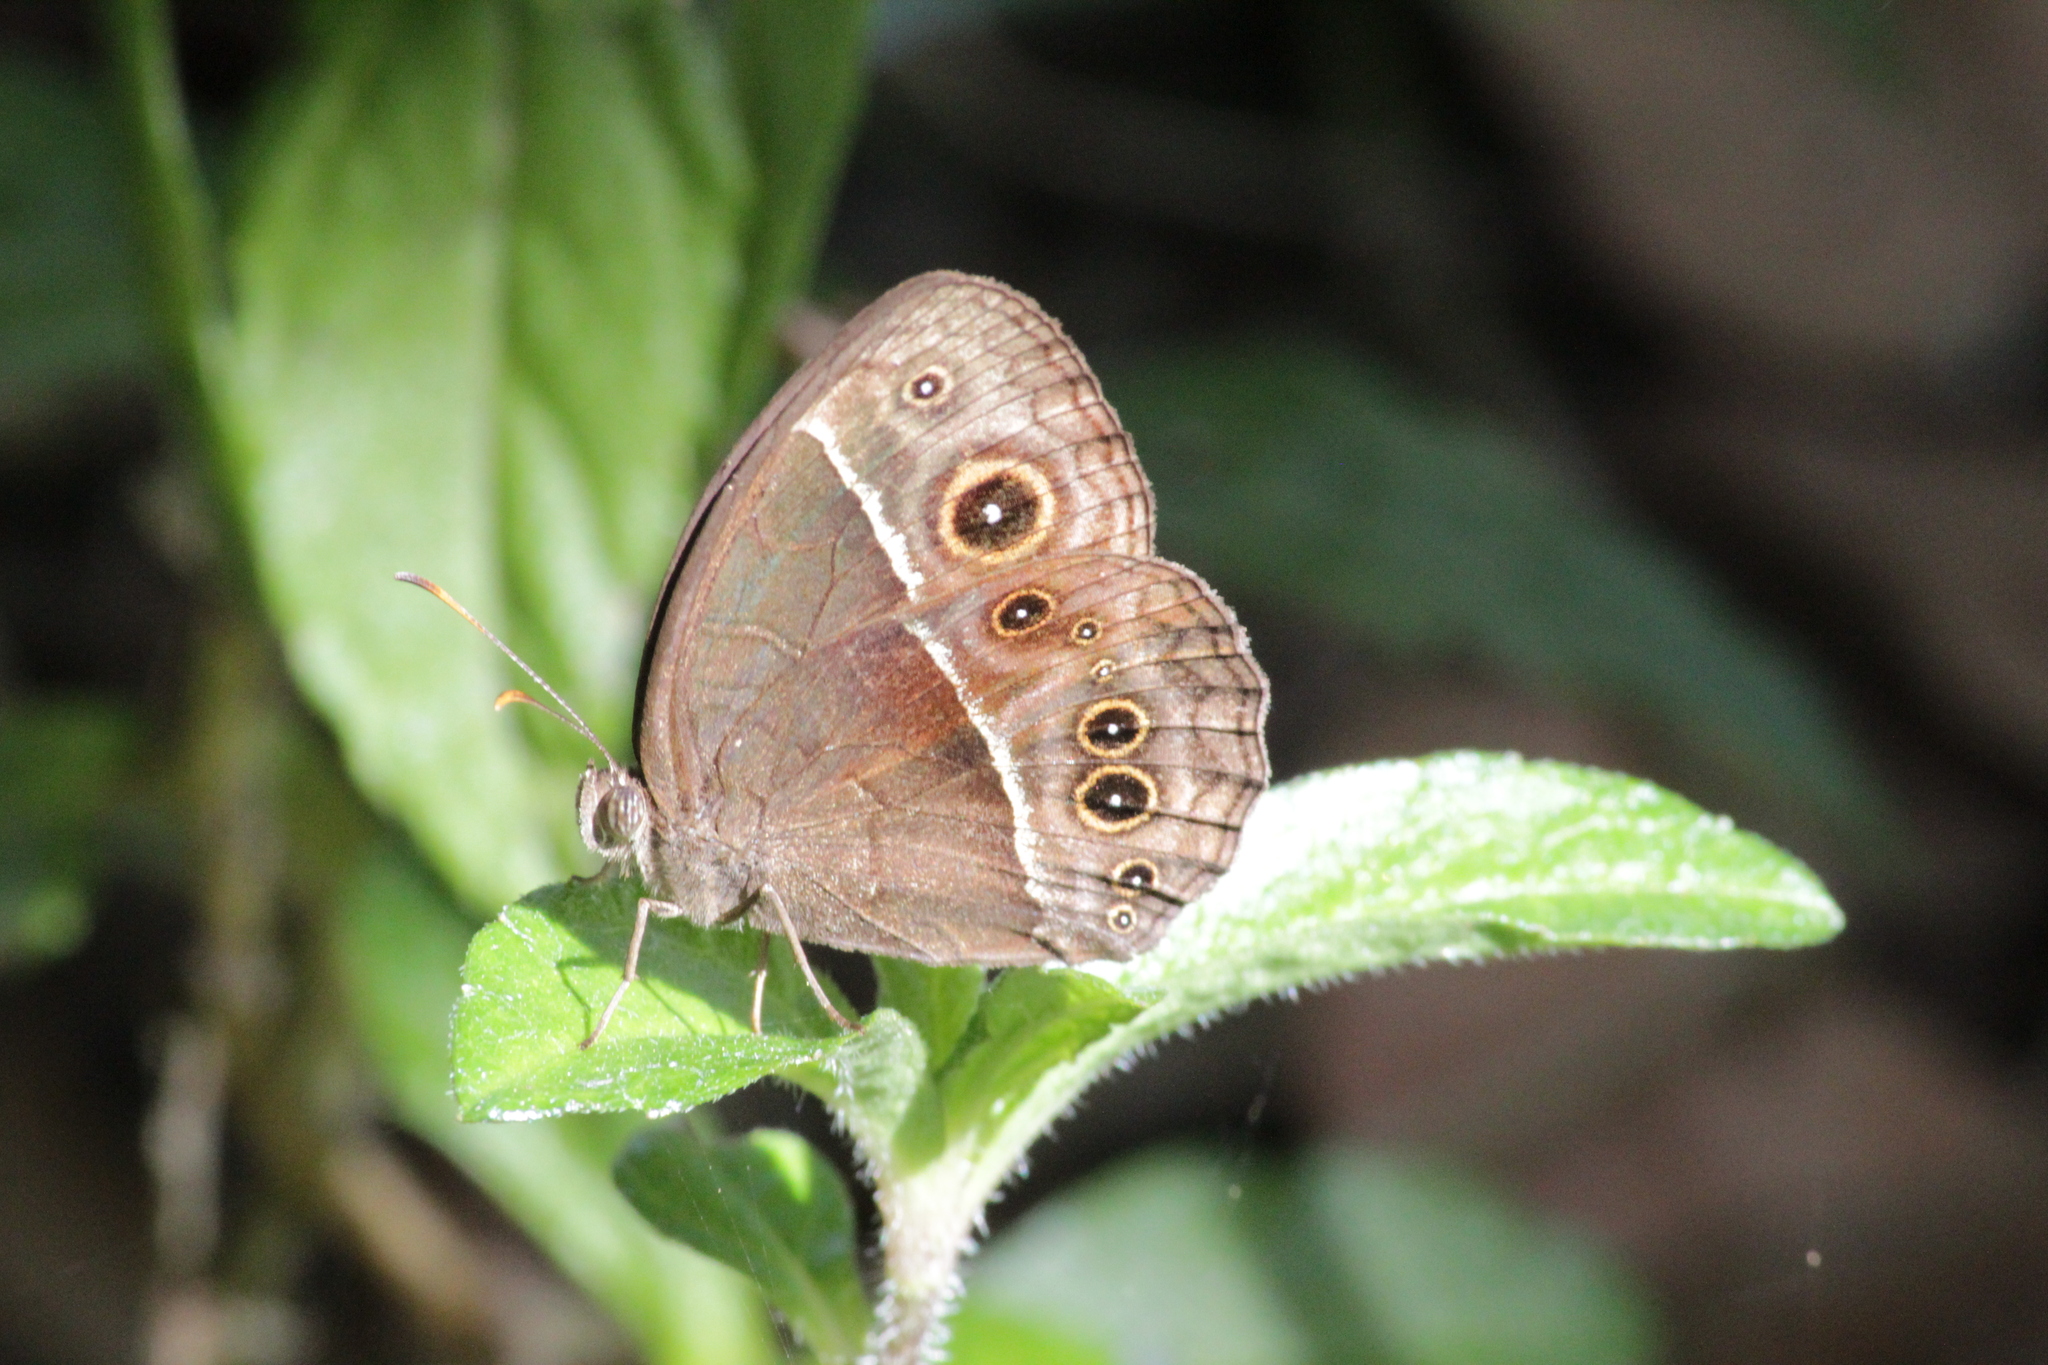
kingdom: Animalia
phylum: Arthropoda
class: Insecta
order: Lepidoptera
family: Nymphalidae
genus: Mycalesis
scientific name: Mycalesis rhacotis
